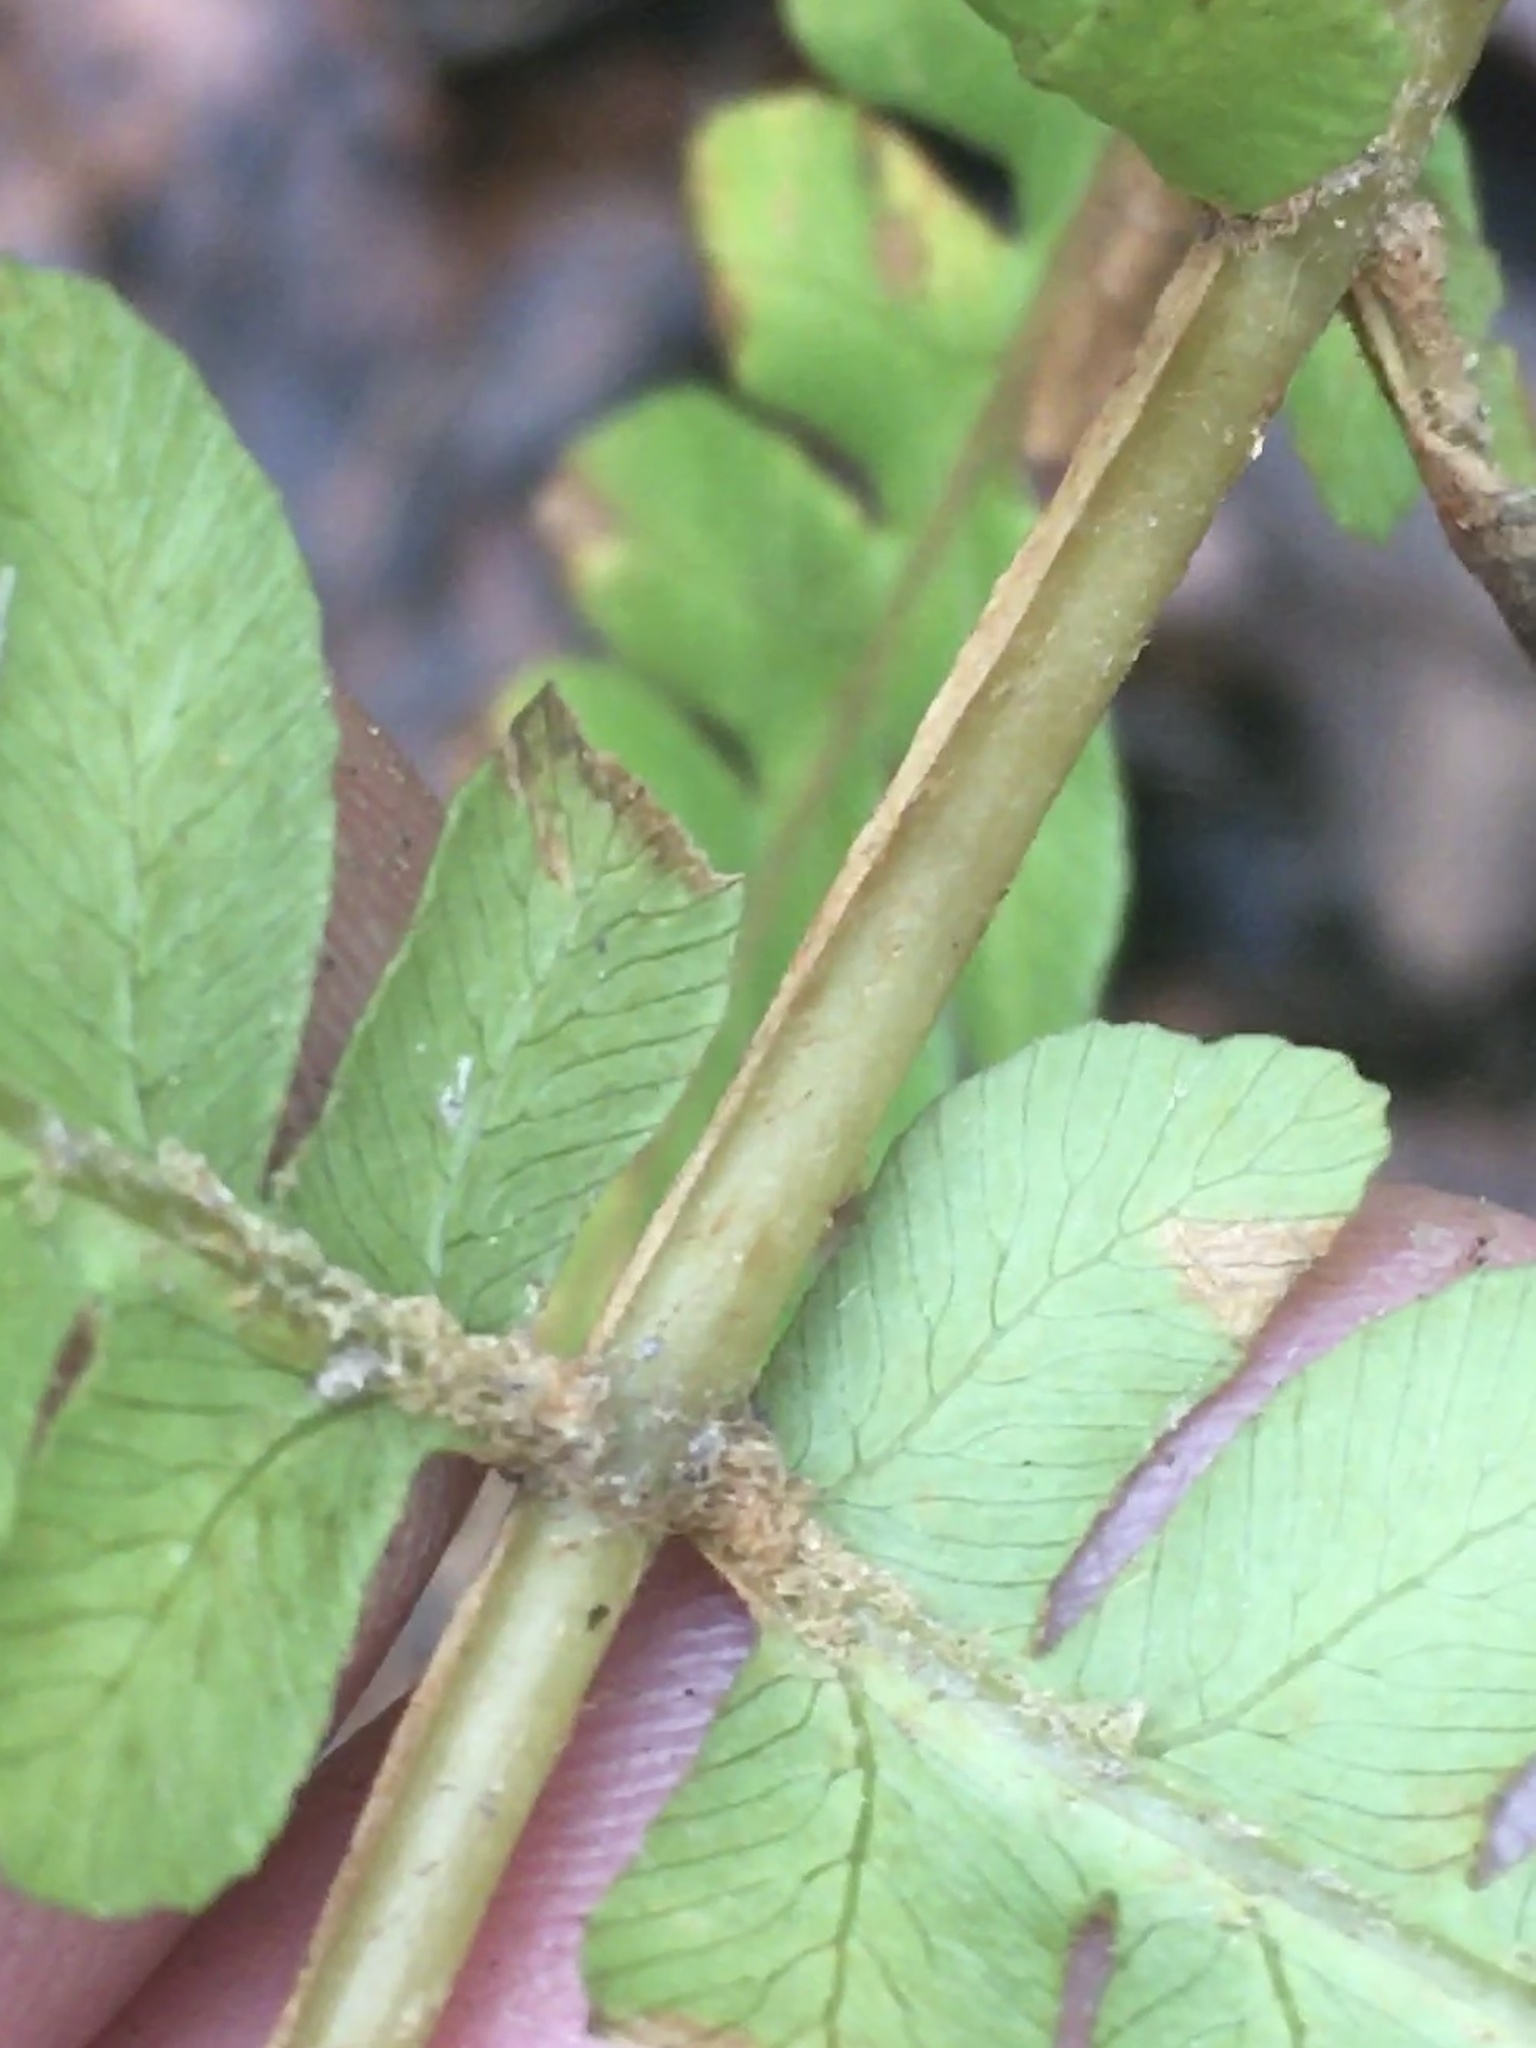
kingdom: Plantae
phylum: Tracheophyta
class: Polypodiopsida
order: Osmundales
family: Osmundaceae
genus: Osmundastrum
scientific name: Osmundastrum cinnamomeum
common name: Cinnamon fern
